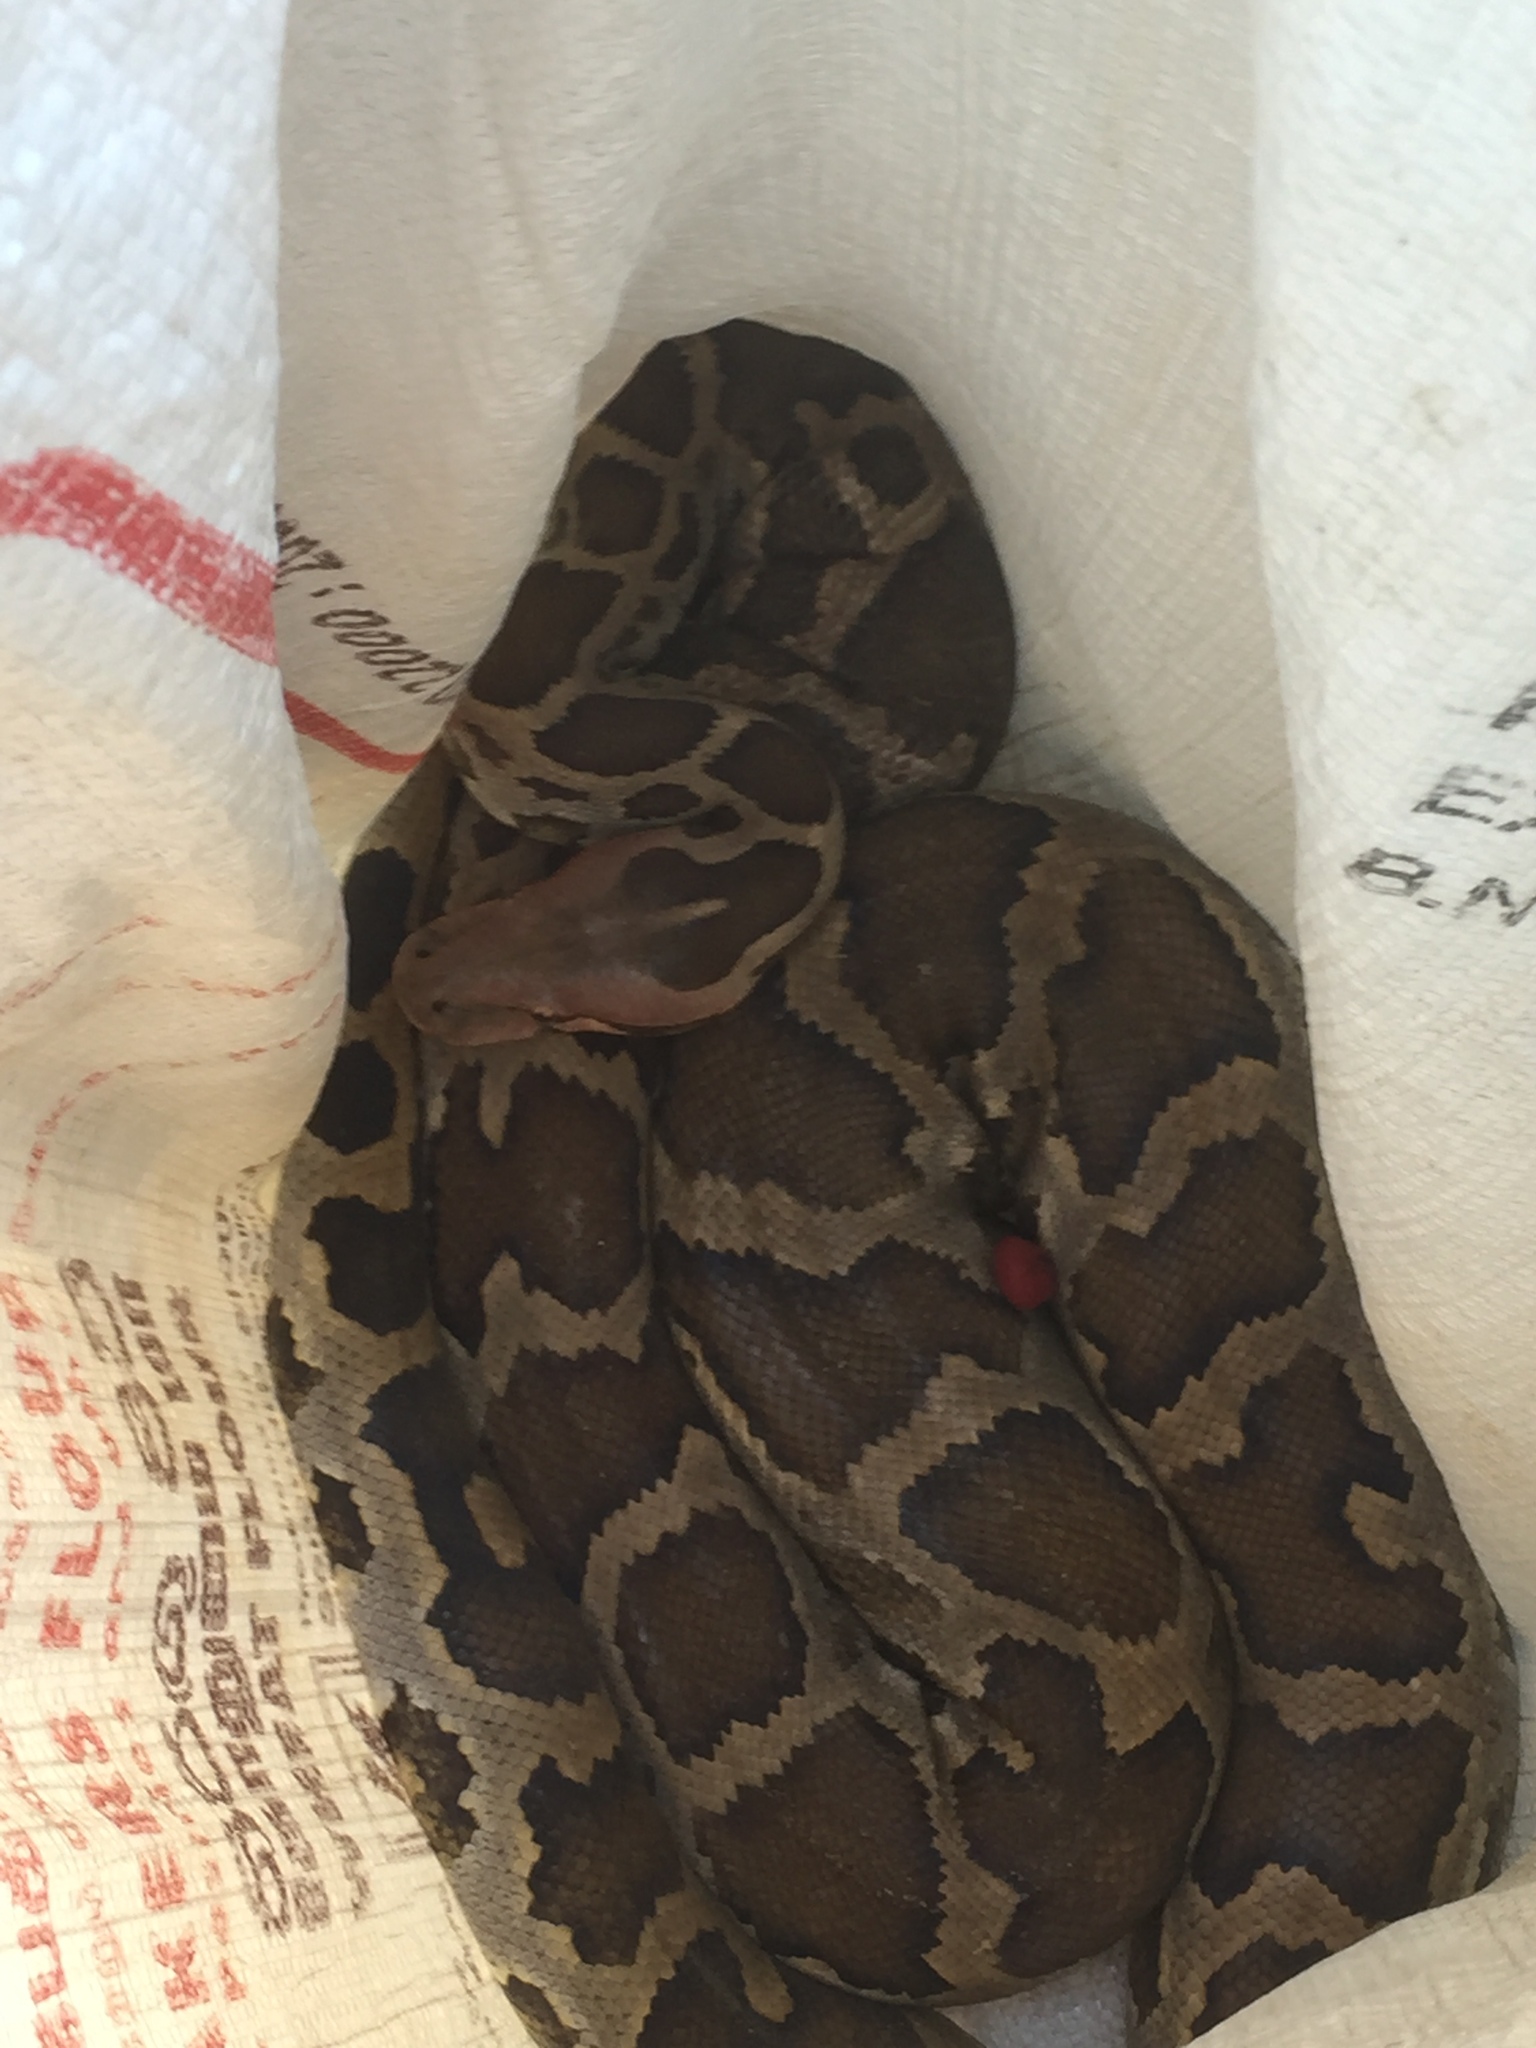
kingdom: Animalia
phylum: Chordata
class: Squamata
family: Pythonidae
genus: Python
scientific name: Python molurus
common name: Indian rock python
